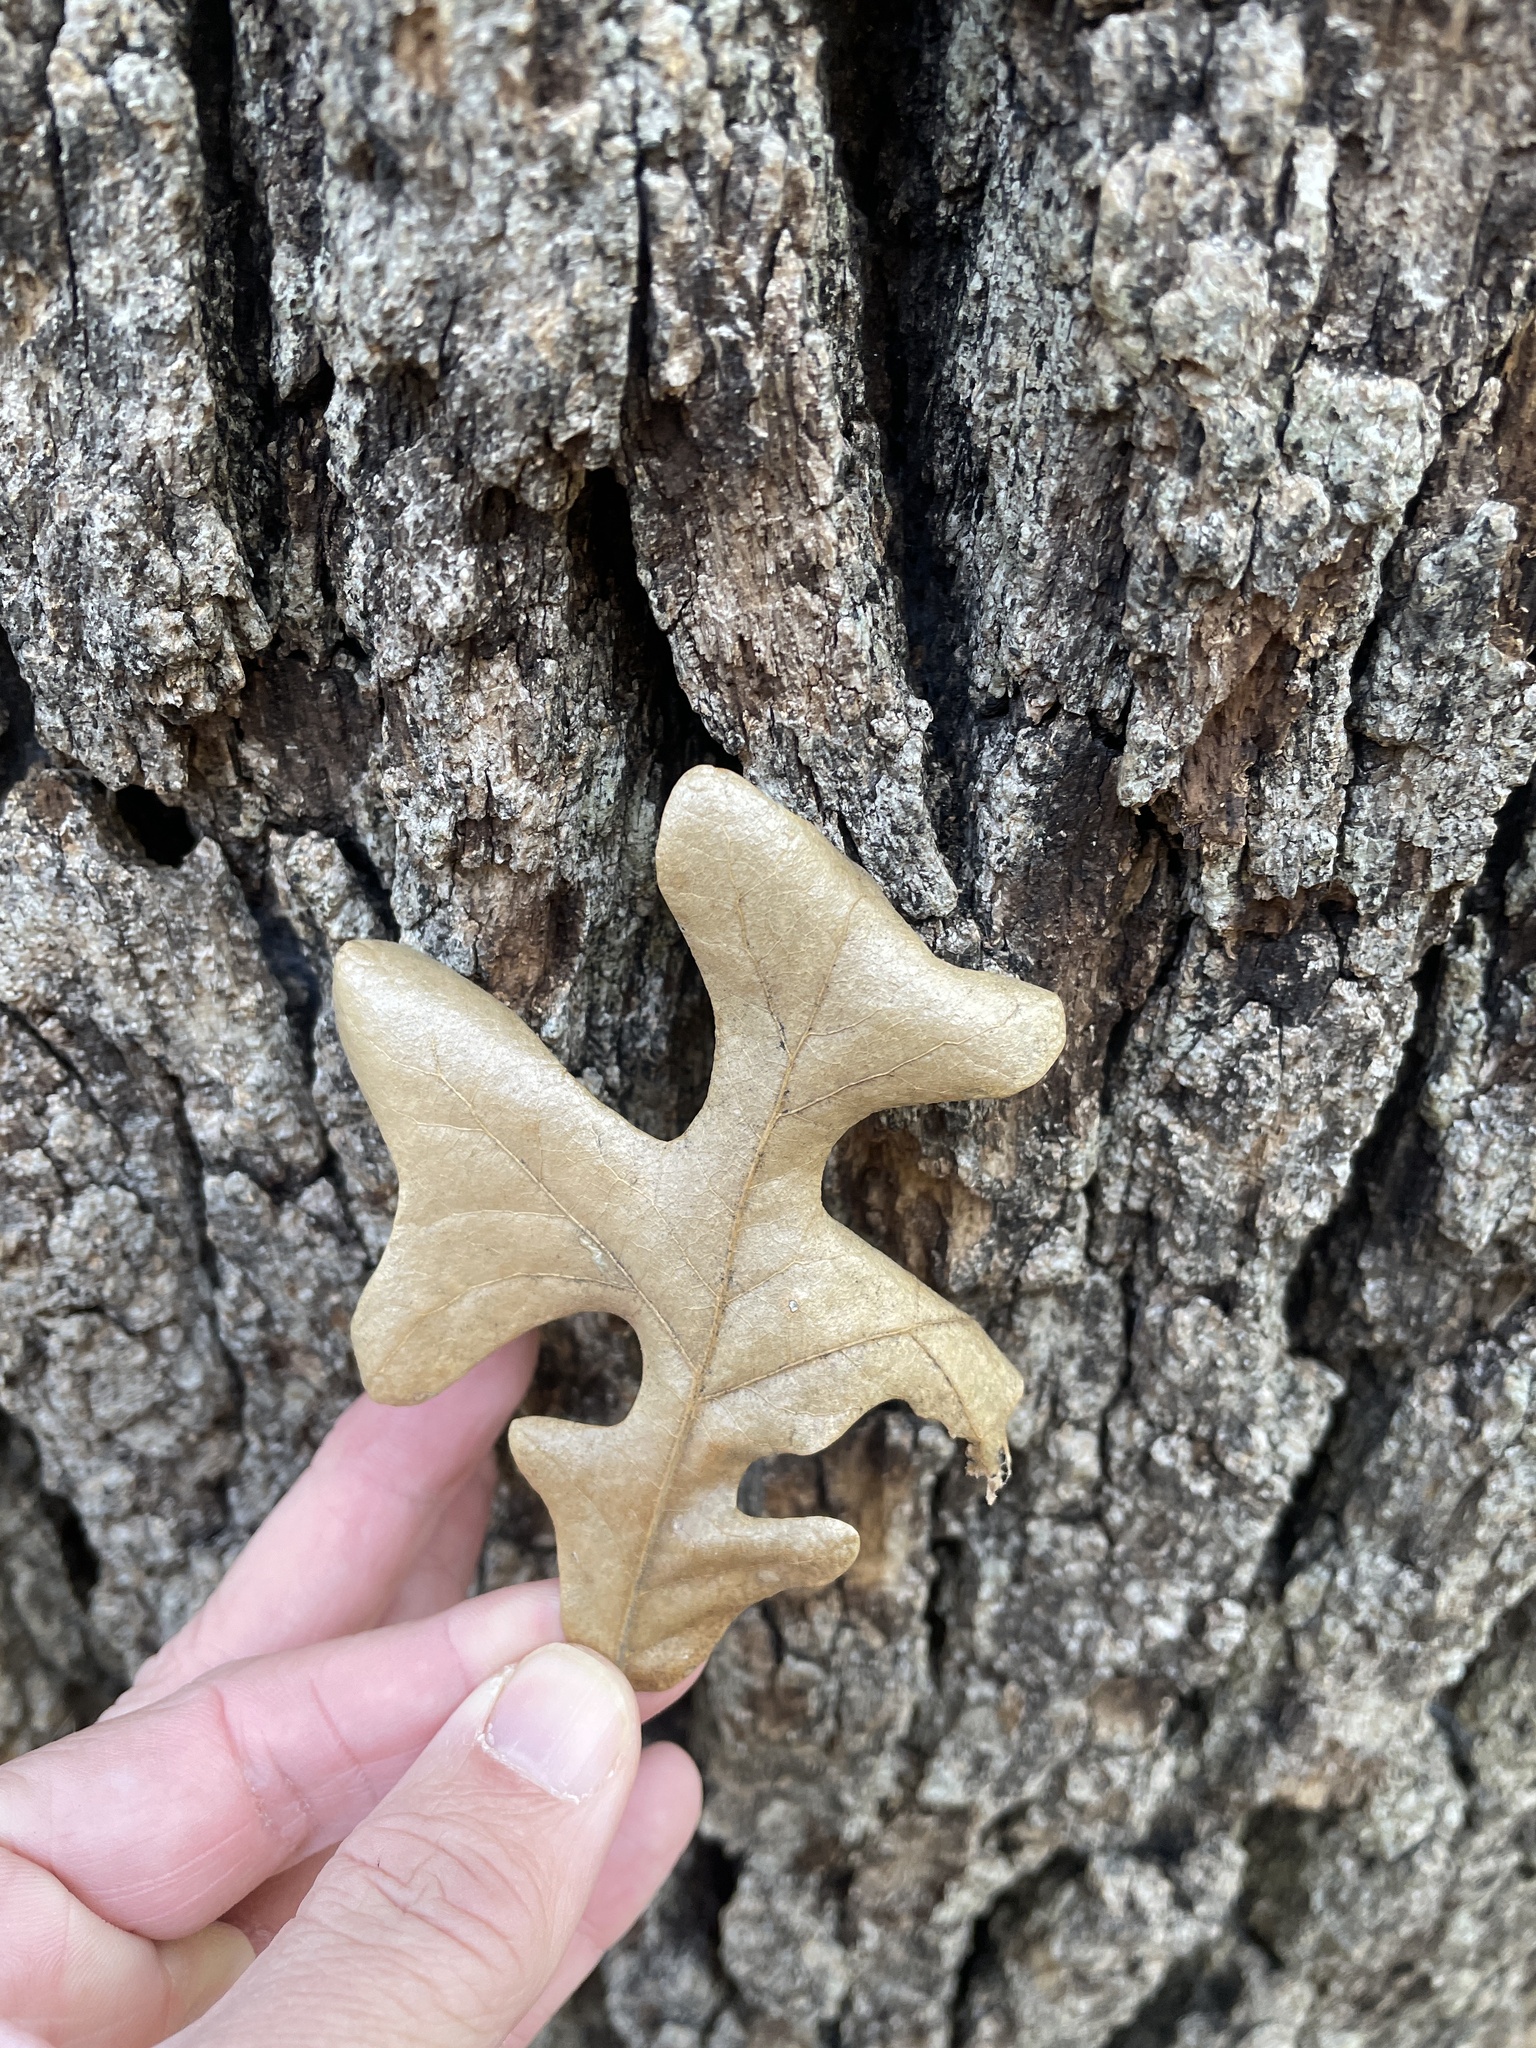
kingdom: Plantae
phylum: Tracheophyta
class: Magnoliopsida
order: Fagales
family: Fagaceae
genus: Quercus
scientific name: Quercus stellata
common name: Post oak
